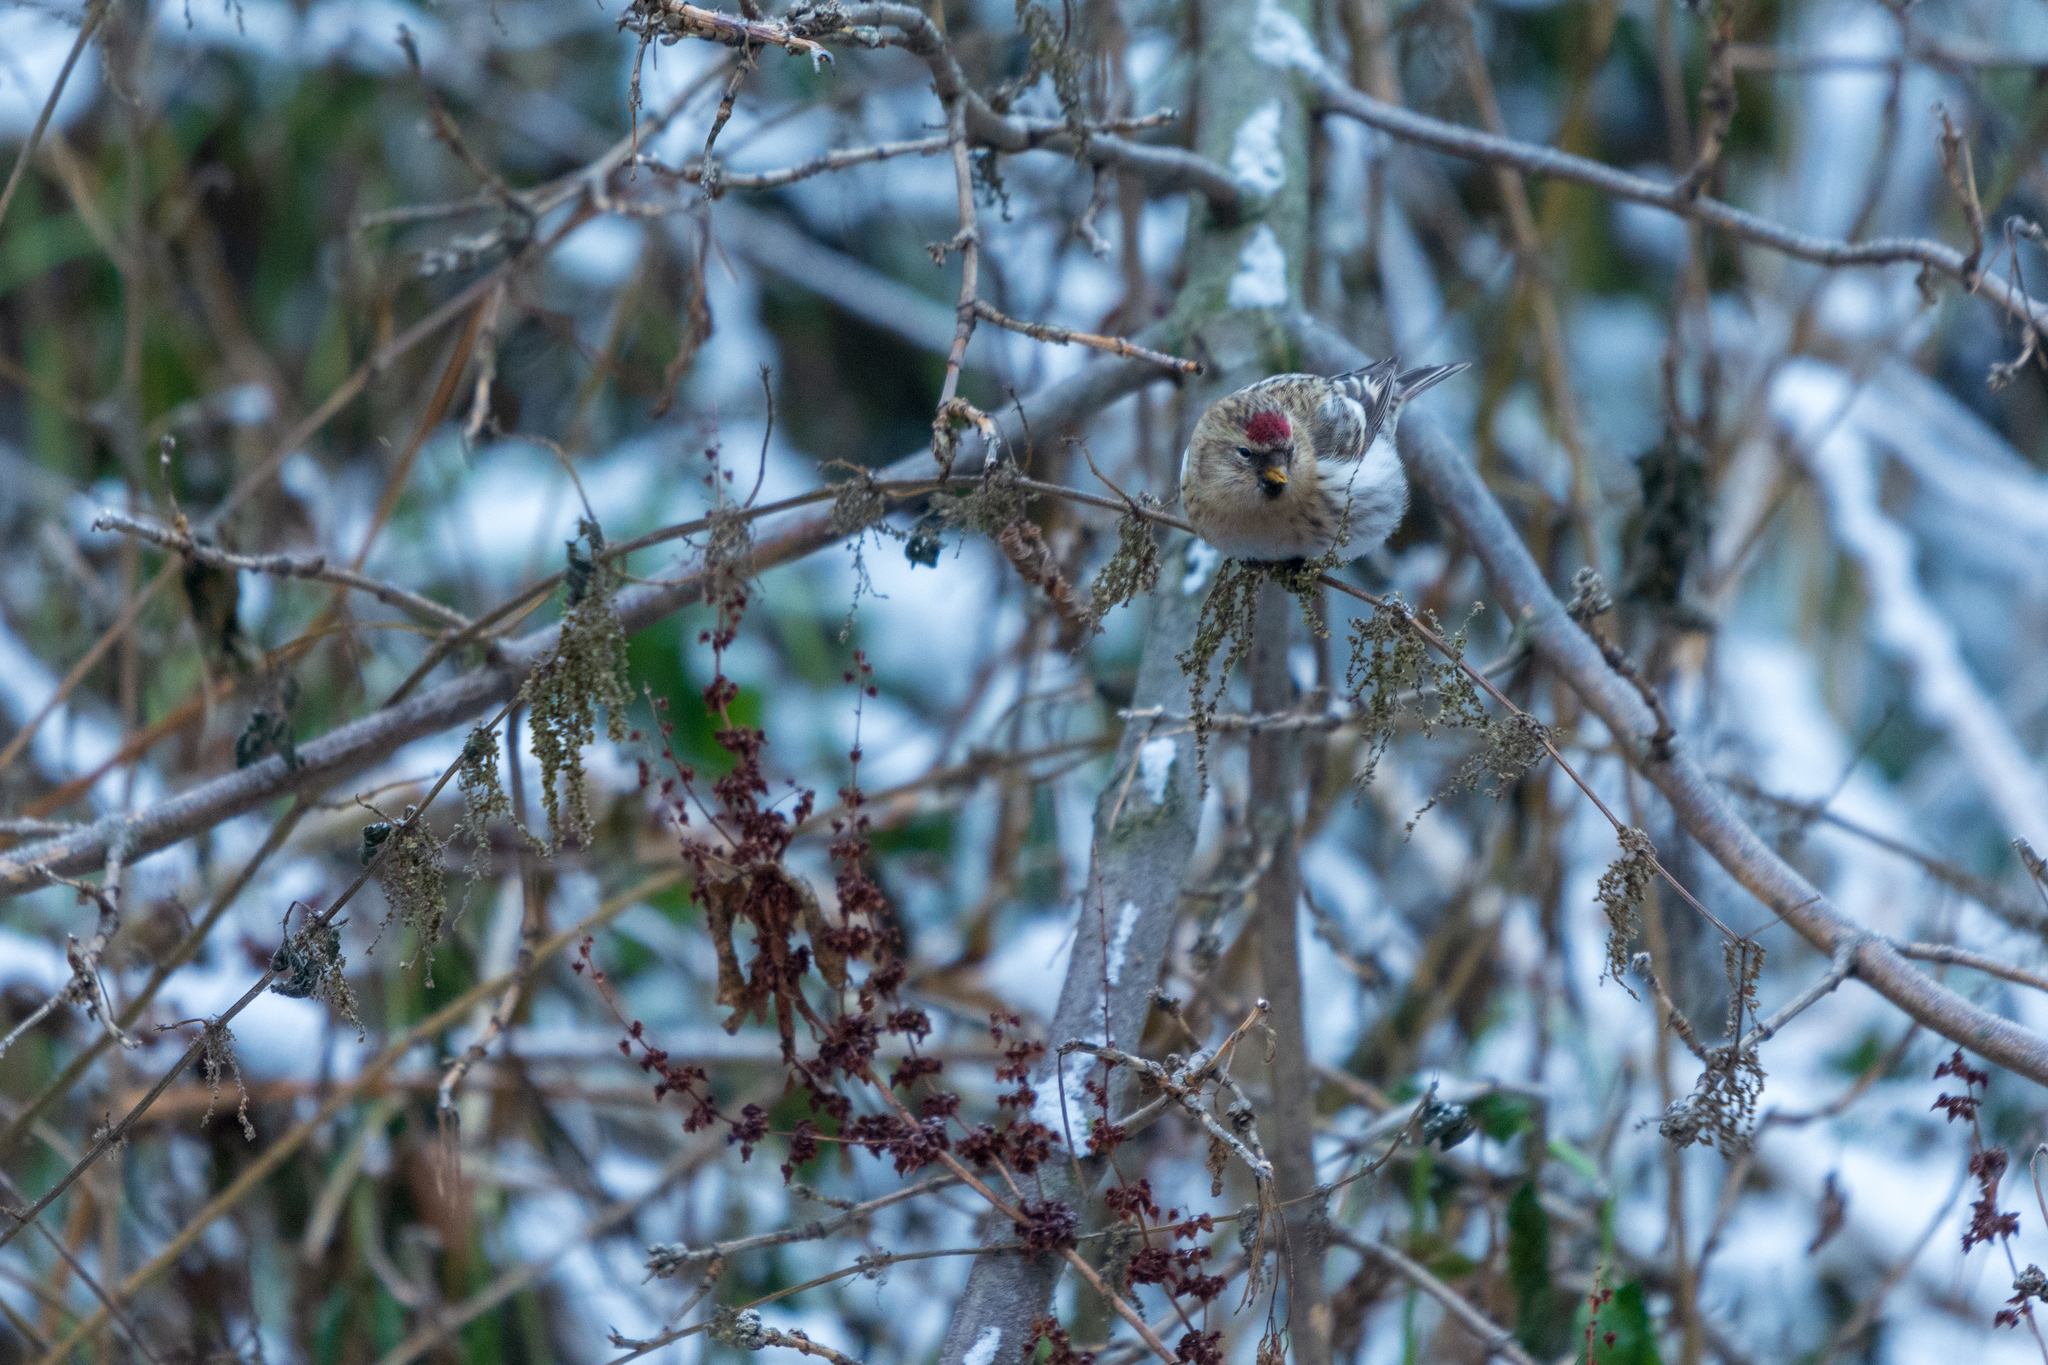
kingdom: Animalia
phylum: Chordata
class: Aves
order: Passeriformes
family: Fringillidae
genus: Acanthis
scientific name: Acanthis flammea
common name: Common redpoll
